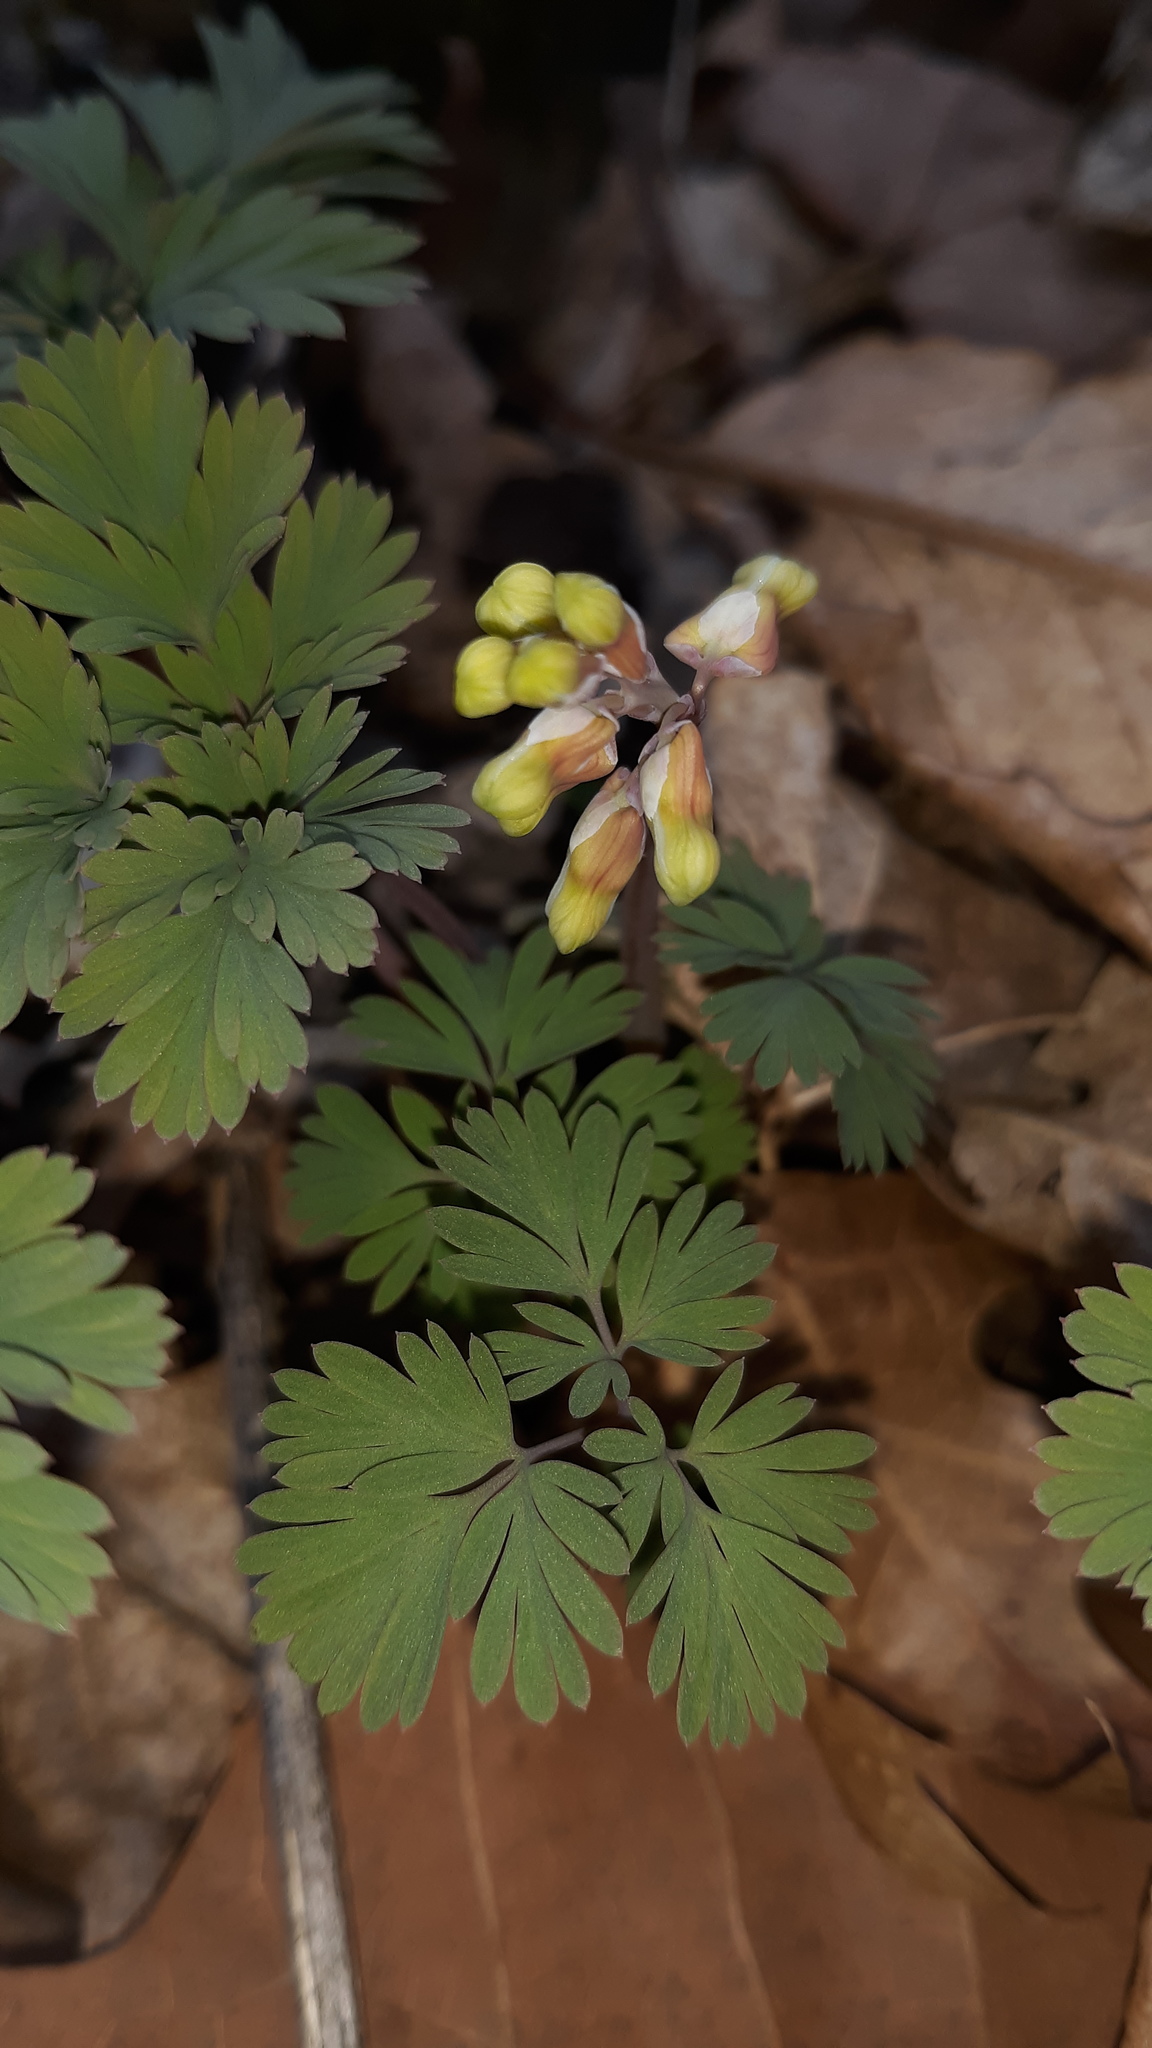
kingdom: Plantae
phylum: Tracheophyta
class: Magnoliopsida
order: Ranunculales
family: Papaveraceae
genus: Dicentra
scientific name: Dicentra cucullaria
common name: Dutchman's breeches
